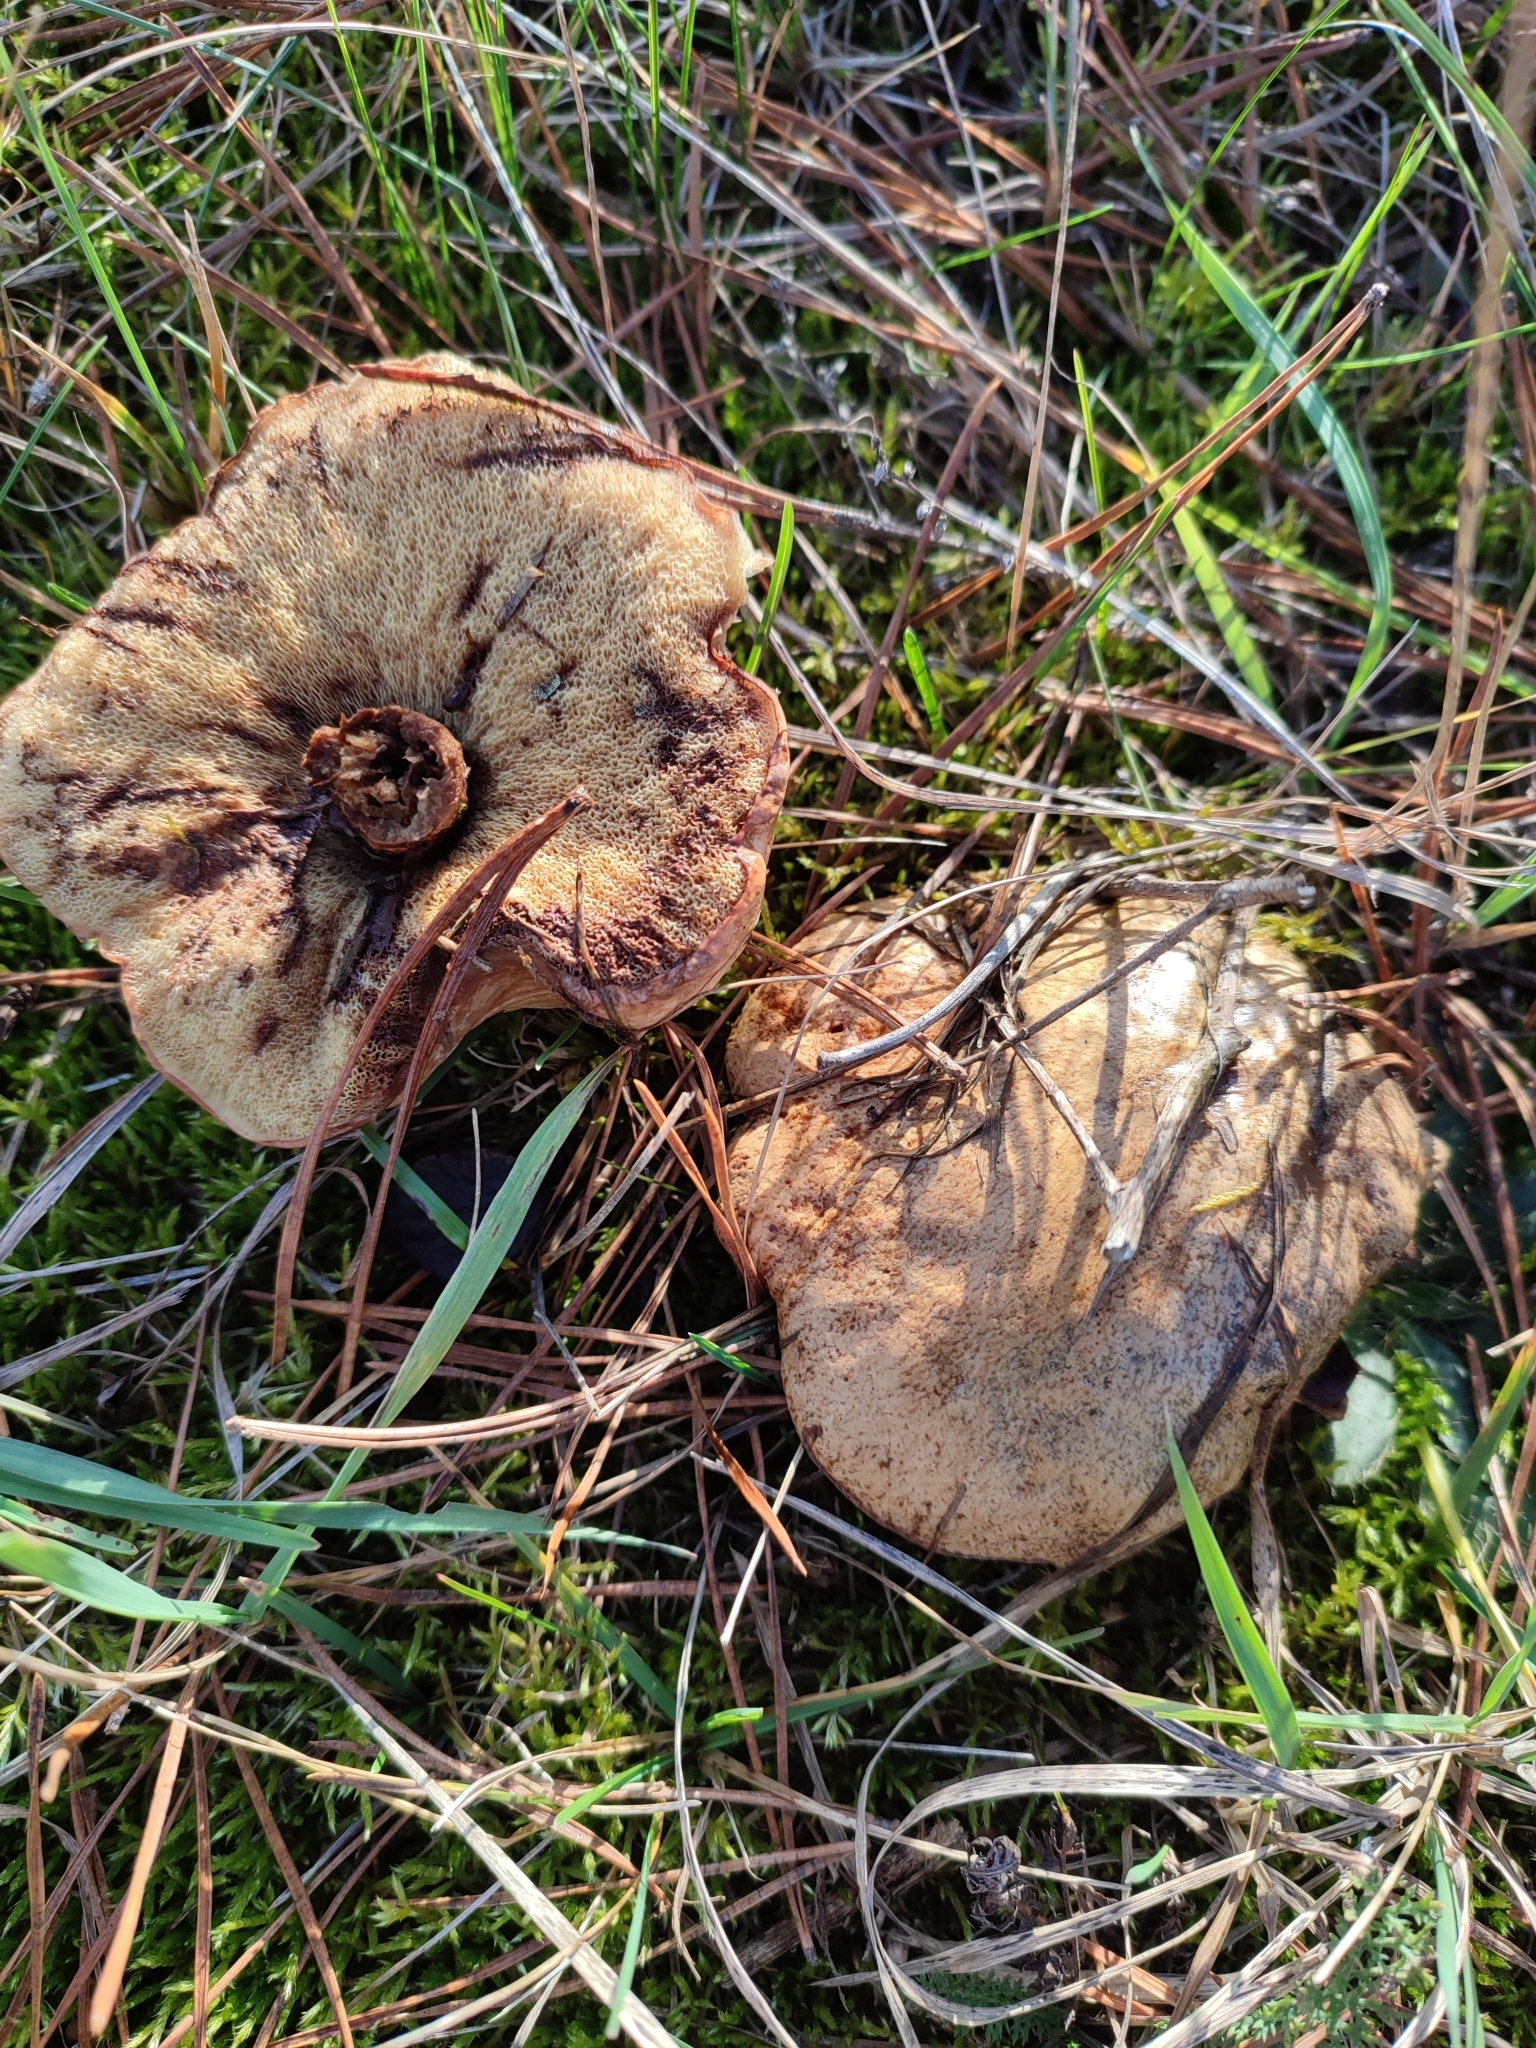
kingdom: Fungi
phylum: Basidiomycota
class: Agaricomycetes
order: Boletales
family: Suillaceae
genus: Suillus
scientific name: Suillus bovinus
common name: Bovine bolete
